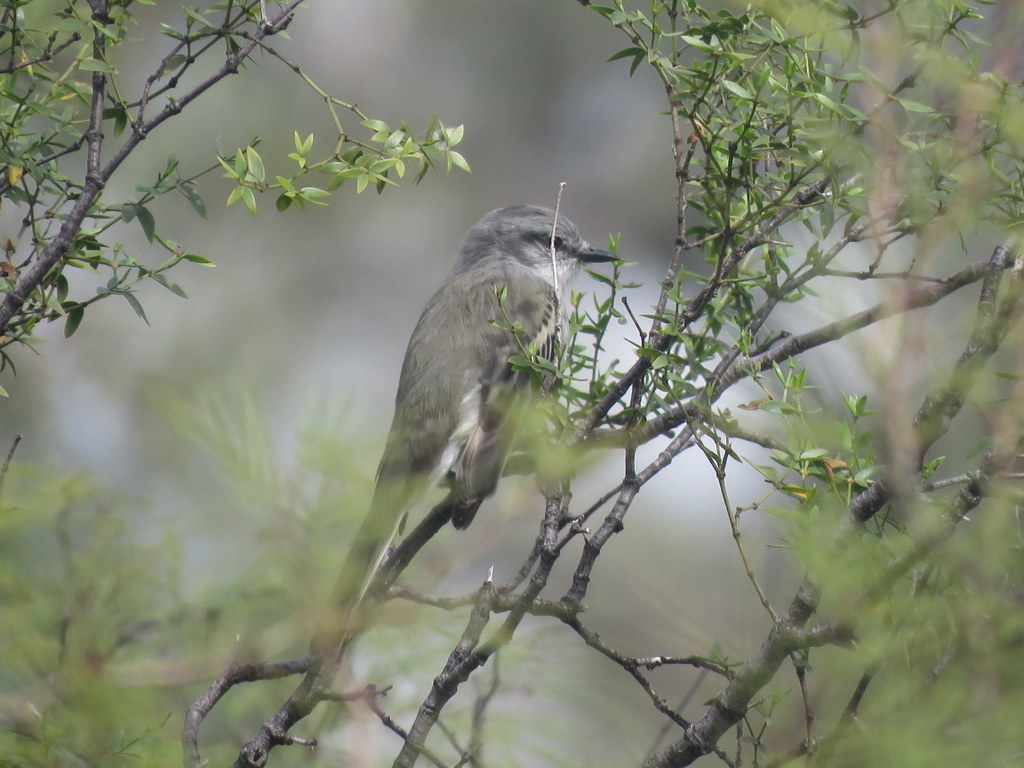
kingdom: Animalia
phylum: Chordata
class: Aves
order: Passeriformes
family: Tyrannidae
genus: Suiriri
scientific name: Suiriri suiriri
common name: Suiriri flycatcher
